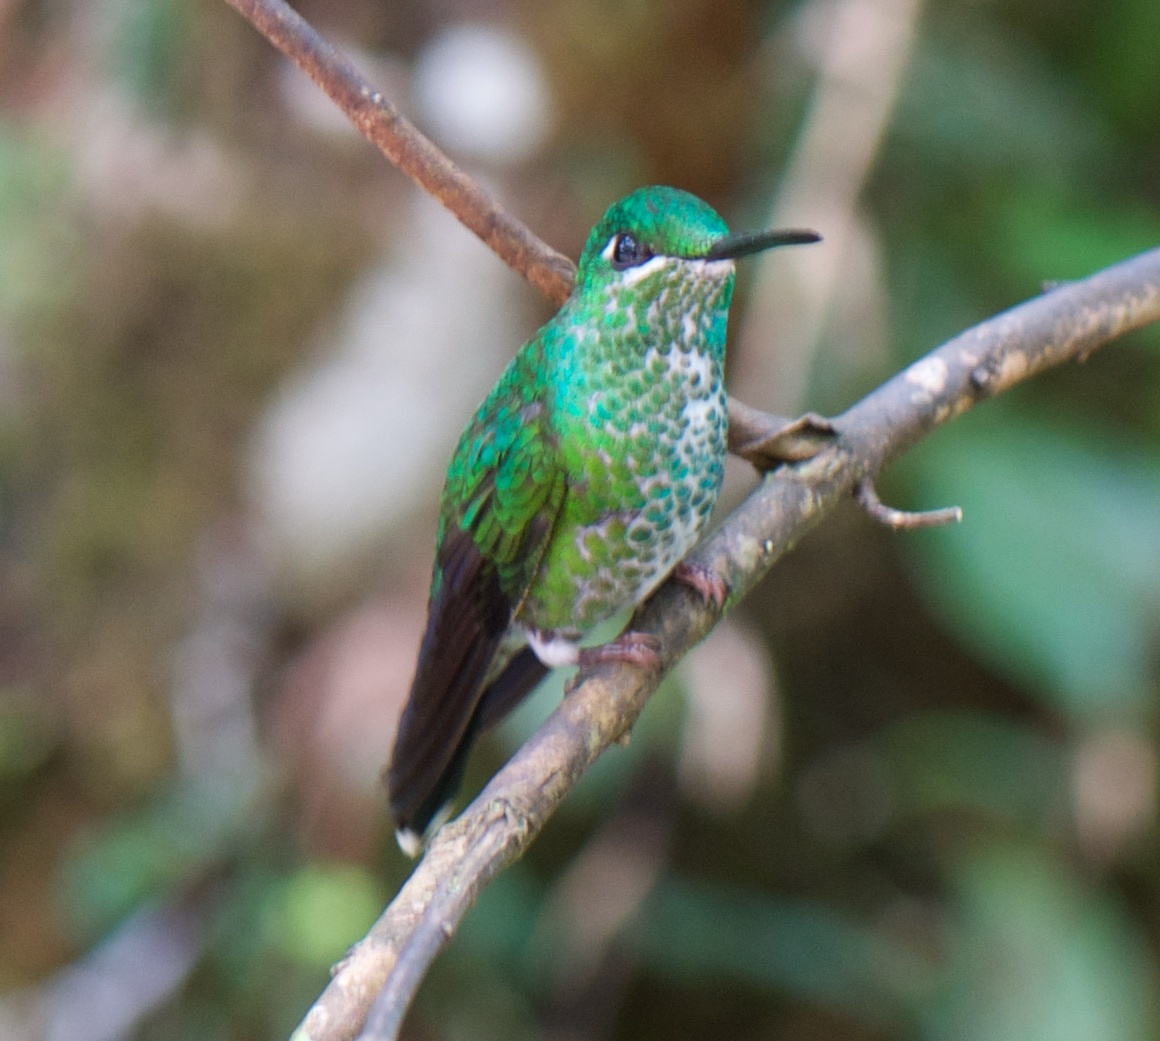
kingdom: Animalia
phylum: Chordata
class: Aves
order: Apodiformes
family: Trochilidae
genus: Heliodoxa
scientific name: Heliodoxa jacula
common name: Green-crowned brilliant
